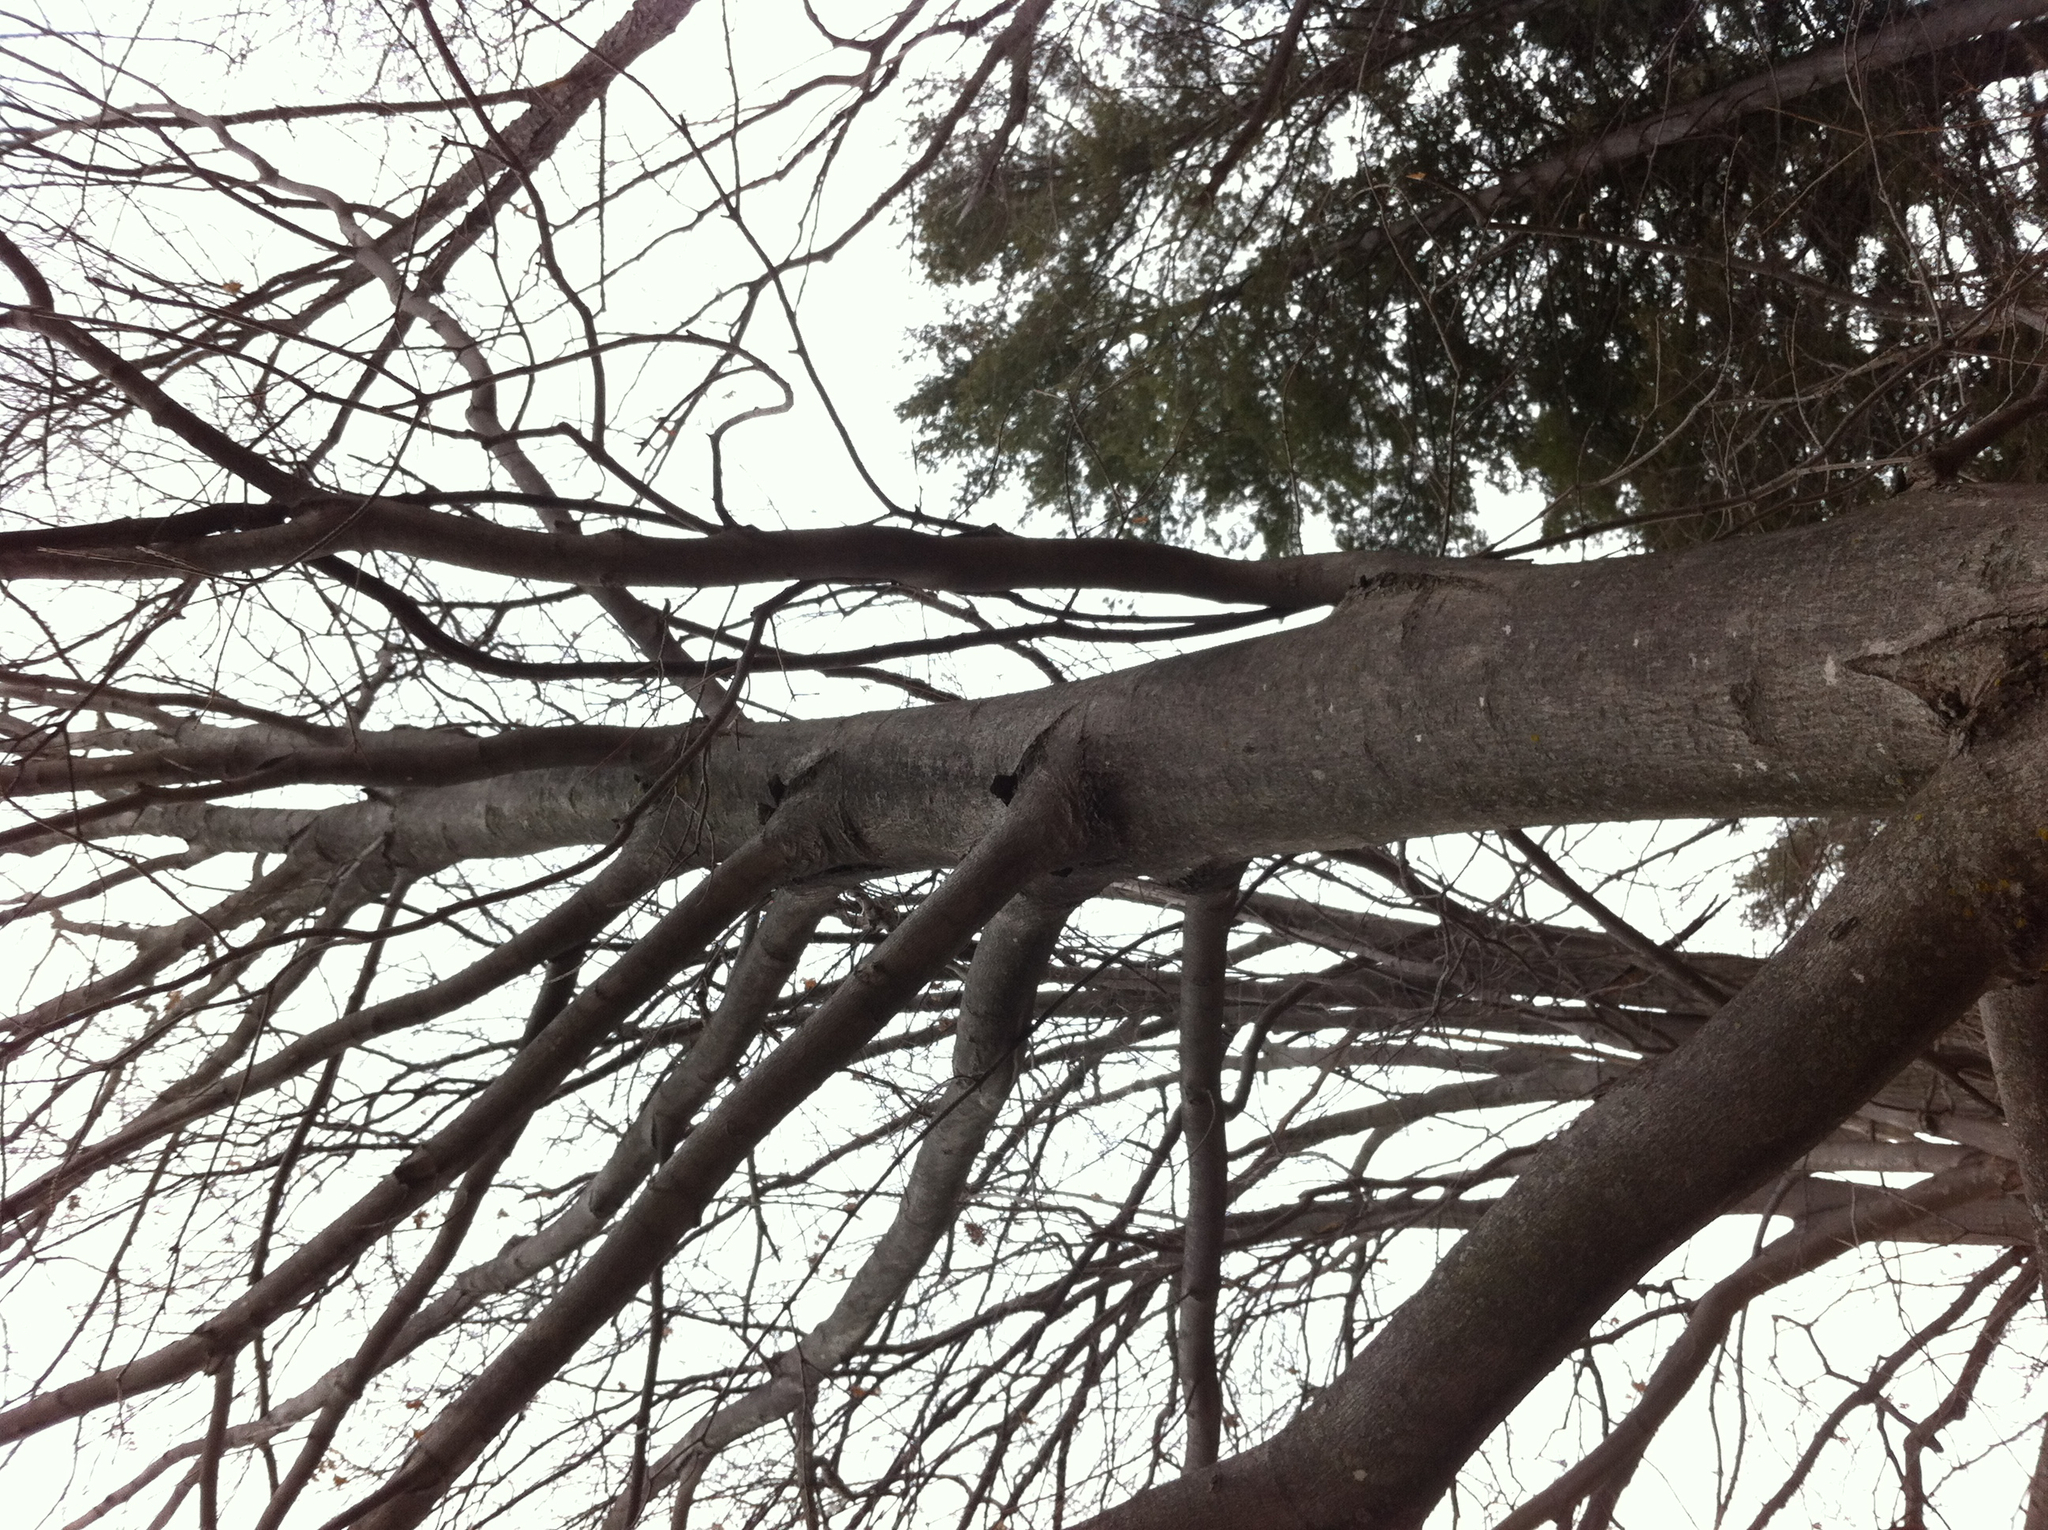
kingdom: Plantae
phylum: Tracheophyta
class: Magnoliopsida
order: Sapindales
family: Sapindaceae
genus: Acer
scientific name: Acer saccharum
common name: Sugar maple
